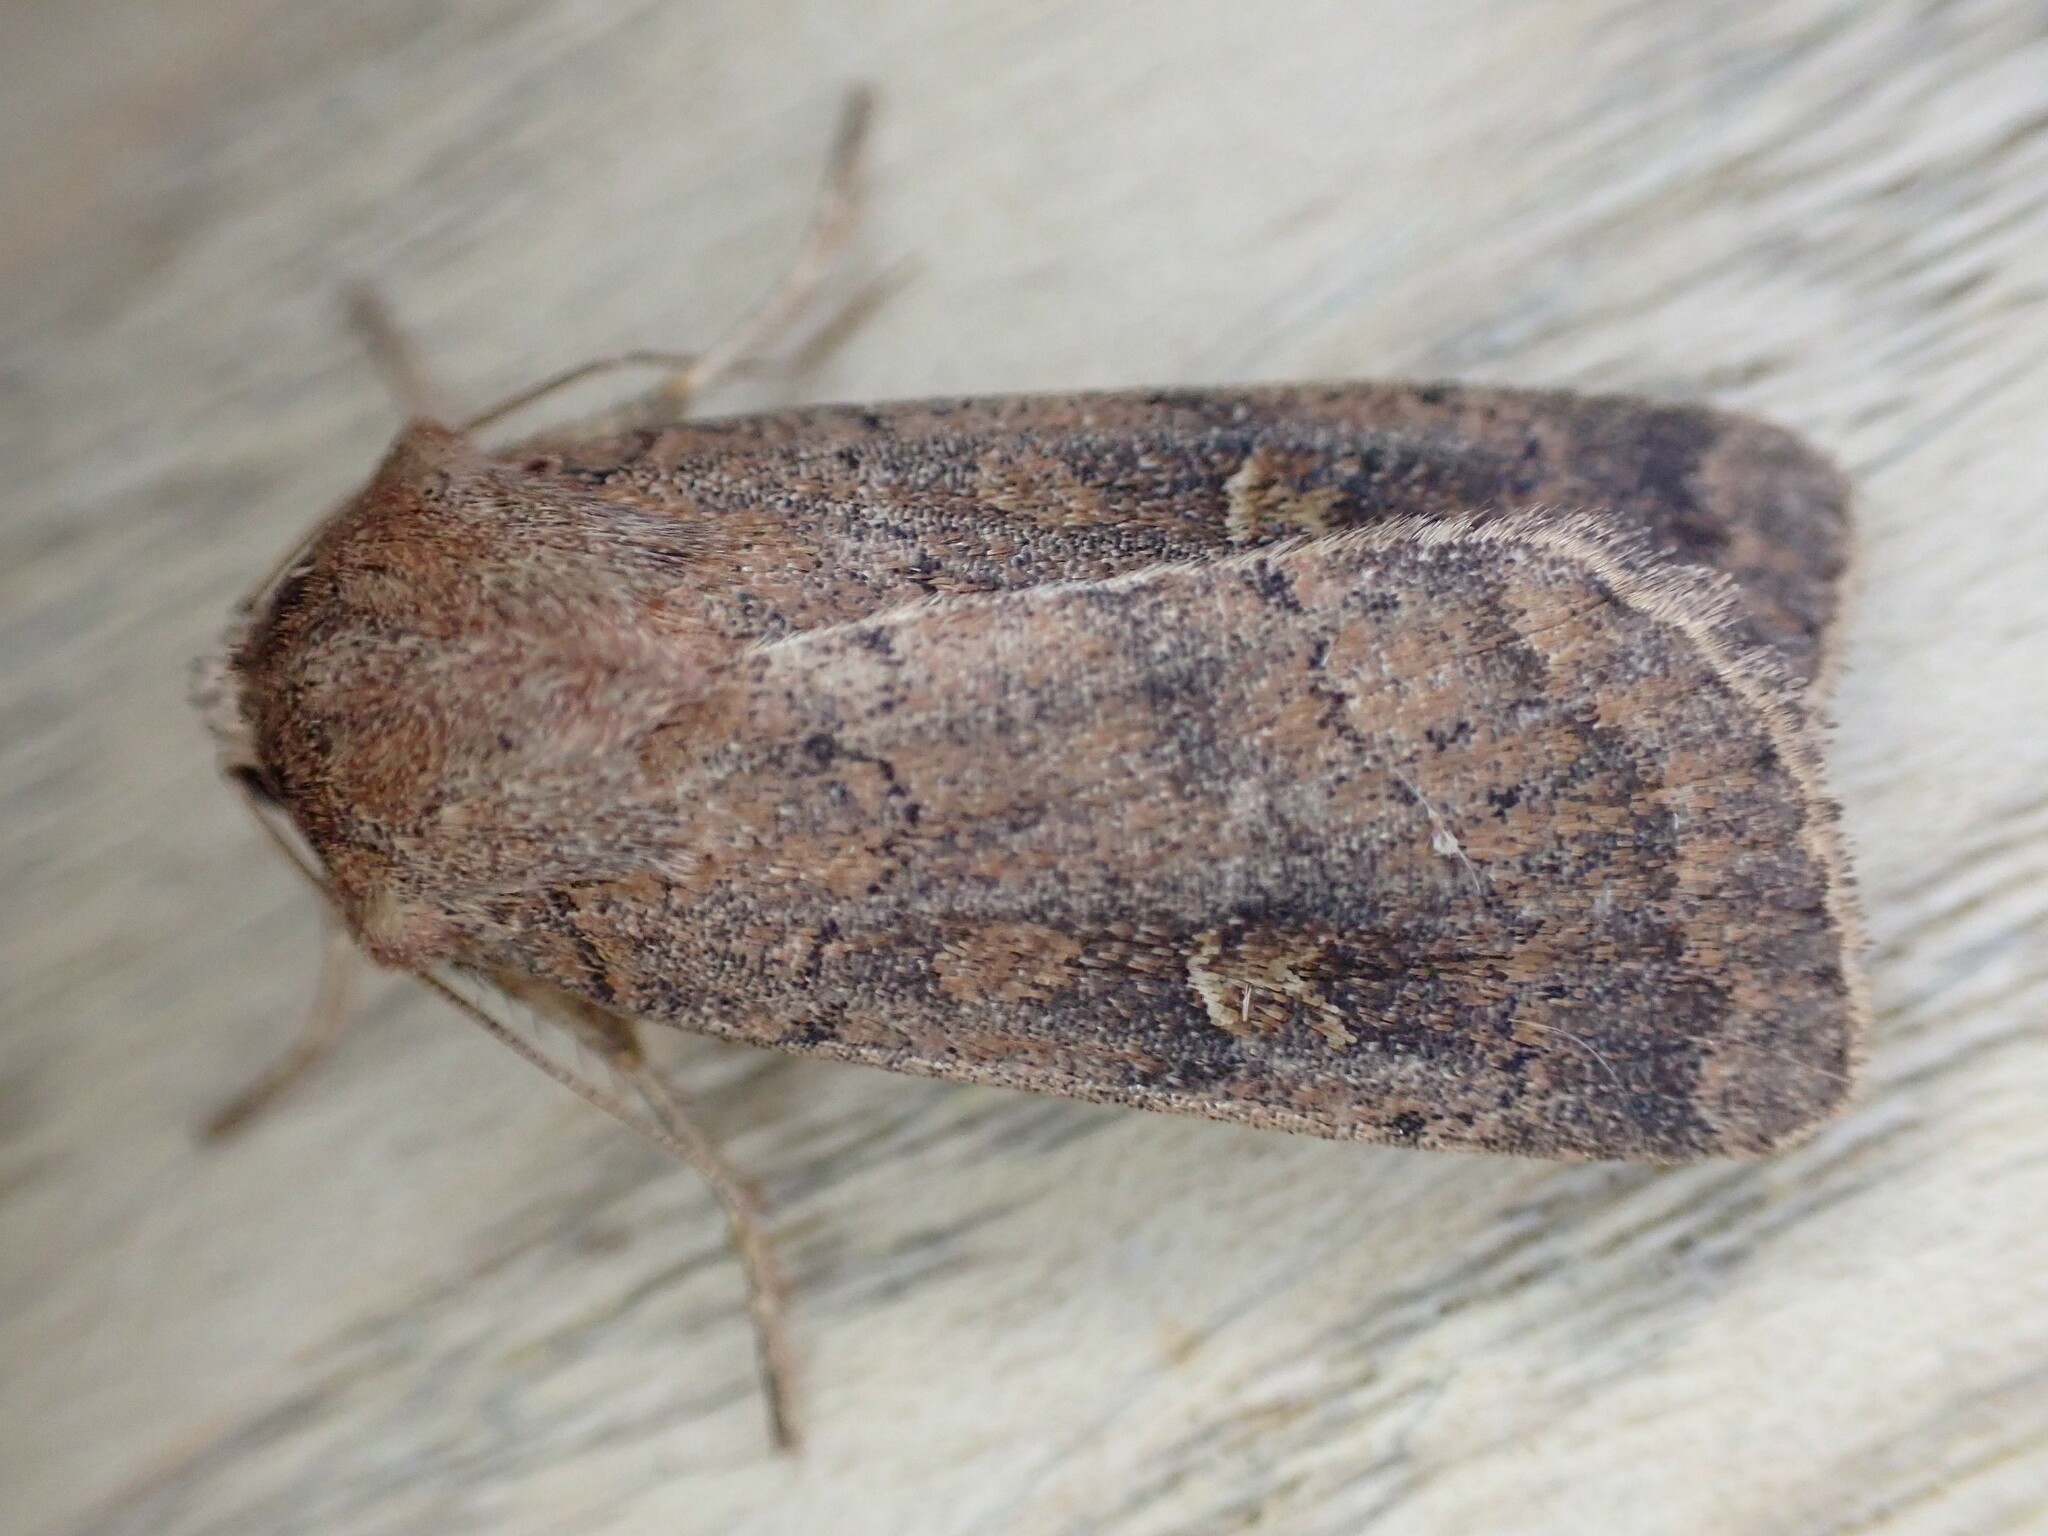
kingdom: Animalia
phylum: Arthropoda
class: Insecta
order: Lepidoptera
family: Noctuidae
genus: Xestia
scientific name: Xestia xanthographa
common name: Square-spot rustic
